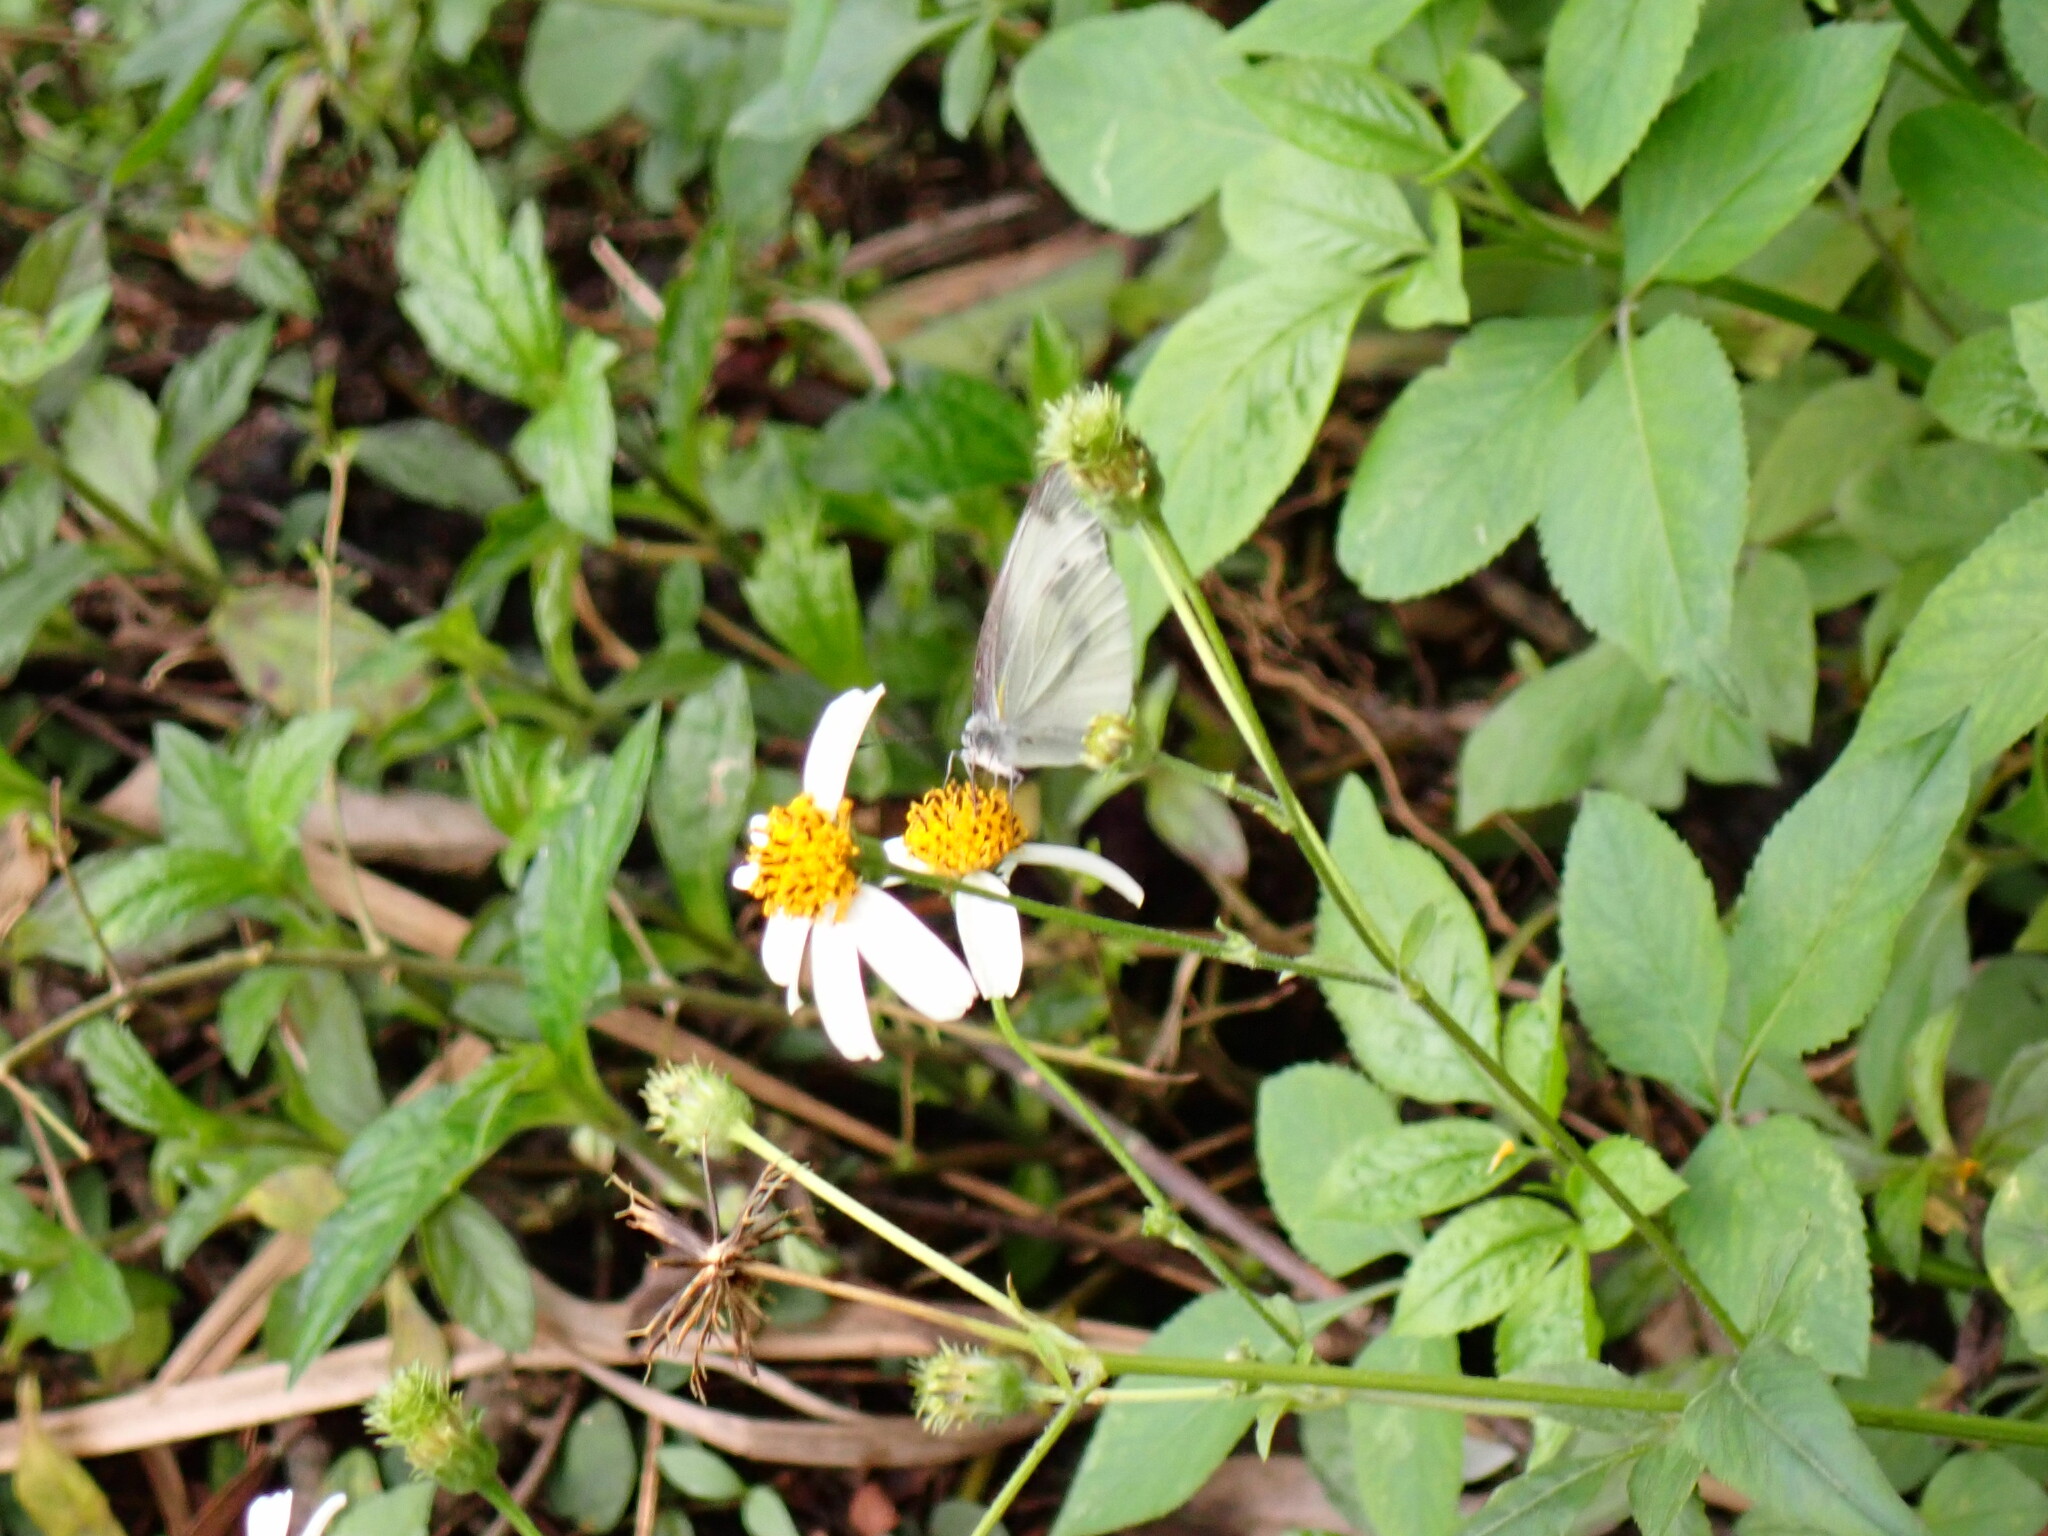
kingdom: Animalia
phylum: Arthropoda
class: Insecta
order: Lepidoptera
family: Pieridae
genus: Pieris
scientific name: Pieris canidia
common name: Indian cabbage white
